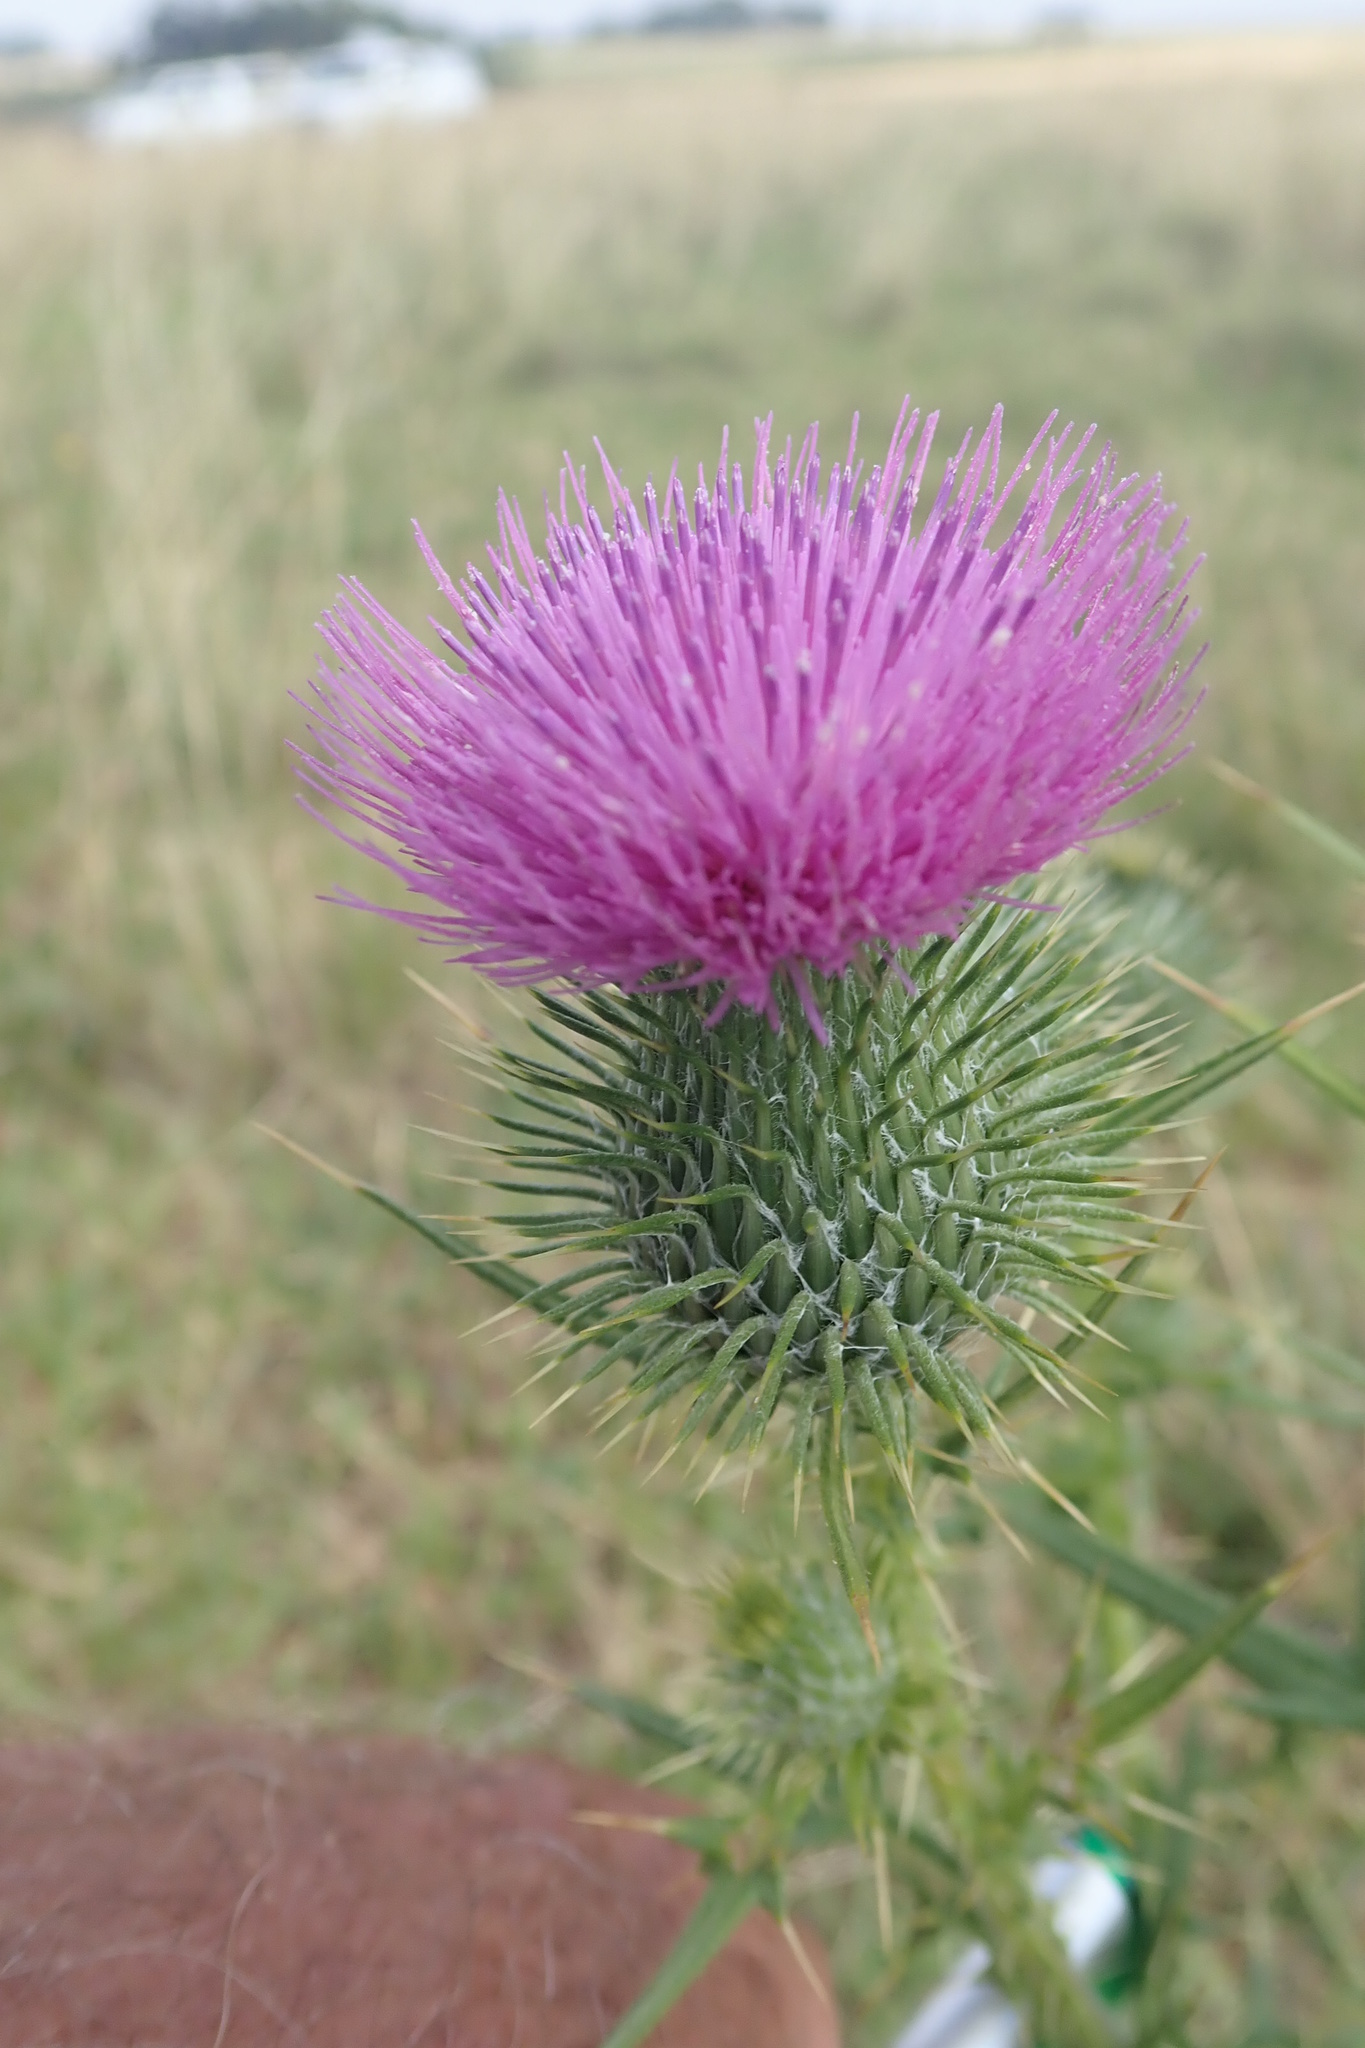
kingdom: Plantae
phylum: Tracheophyta
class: Magnoliopsida
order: Asterales
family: Asteraceae
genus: Cirsium
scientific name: Cirsium vulgare
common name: Bull thistle
